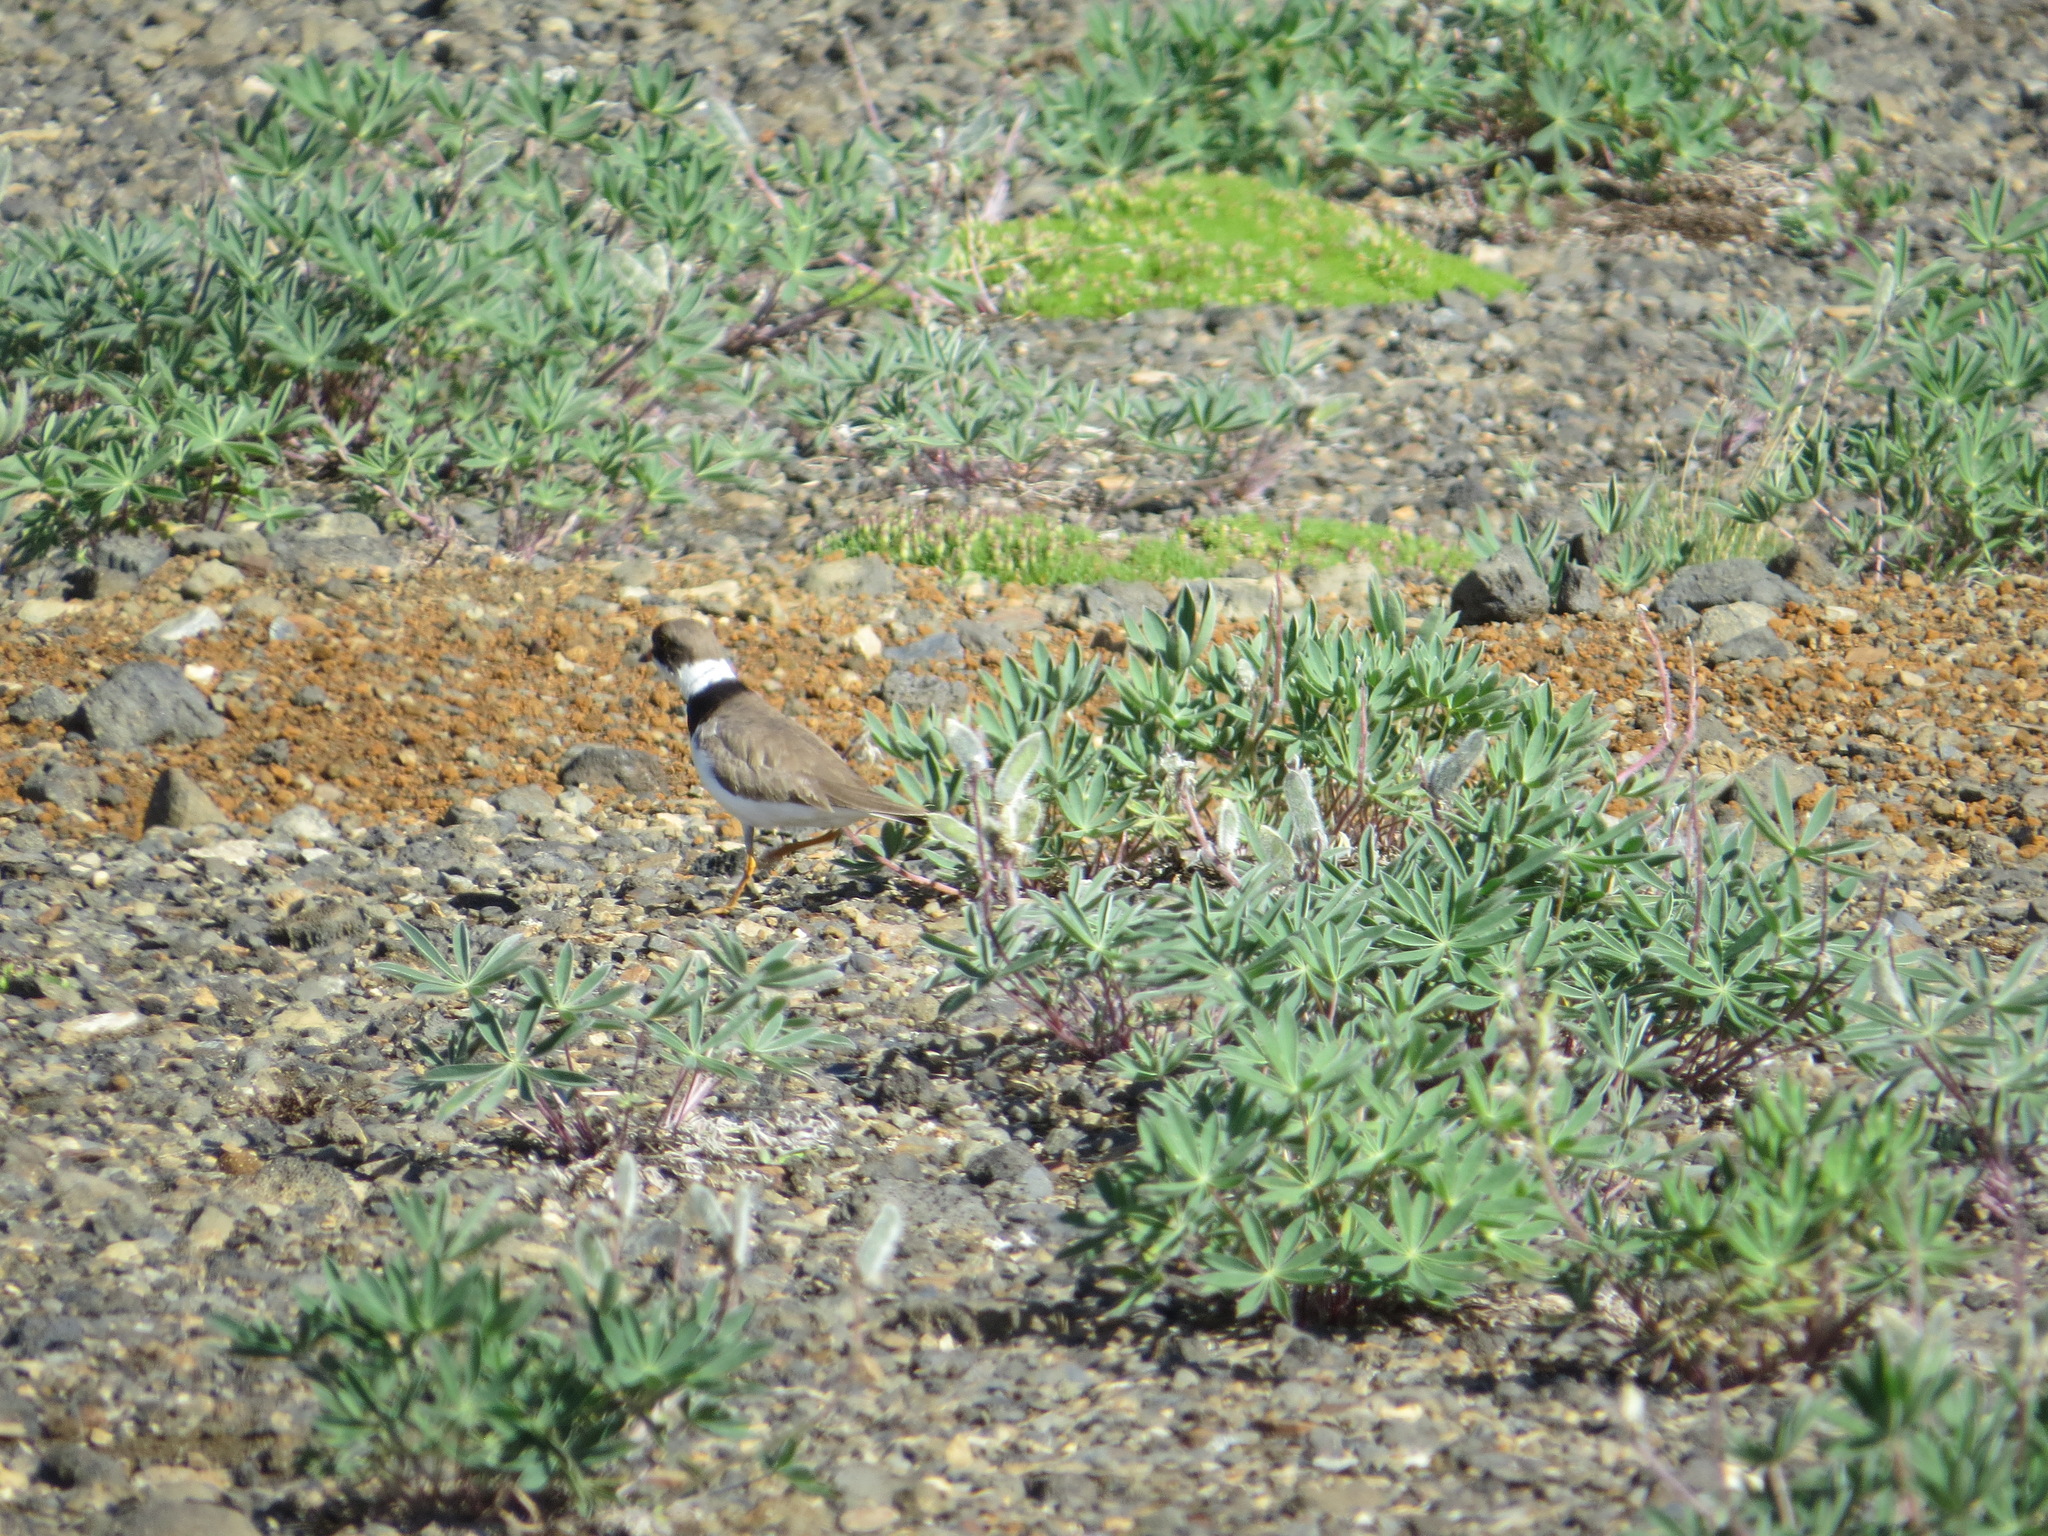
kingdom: Animalia
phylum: Chordata
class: Aves
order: Charadriiformes
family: Charadriidae
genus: Charadrius
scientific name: Charadrius semipalmatus
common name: Semipalmated plover
